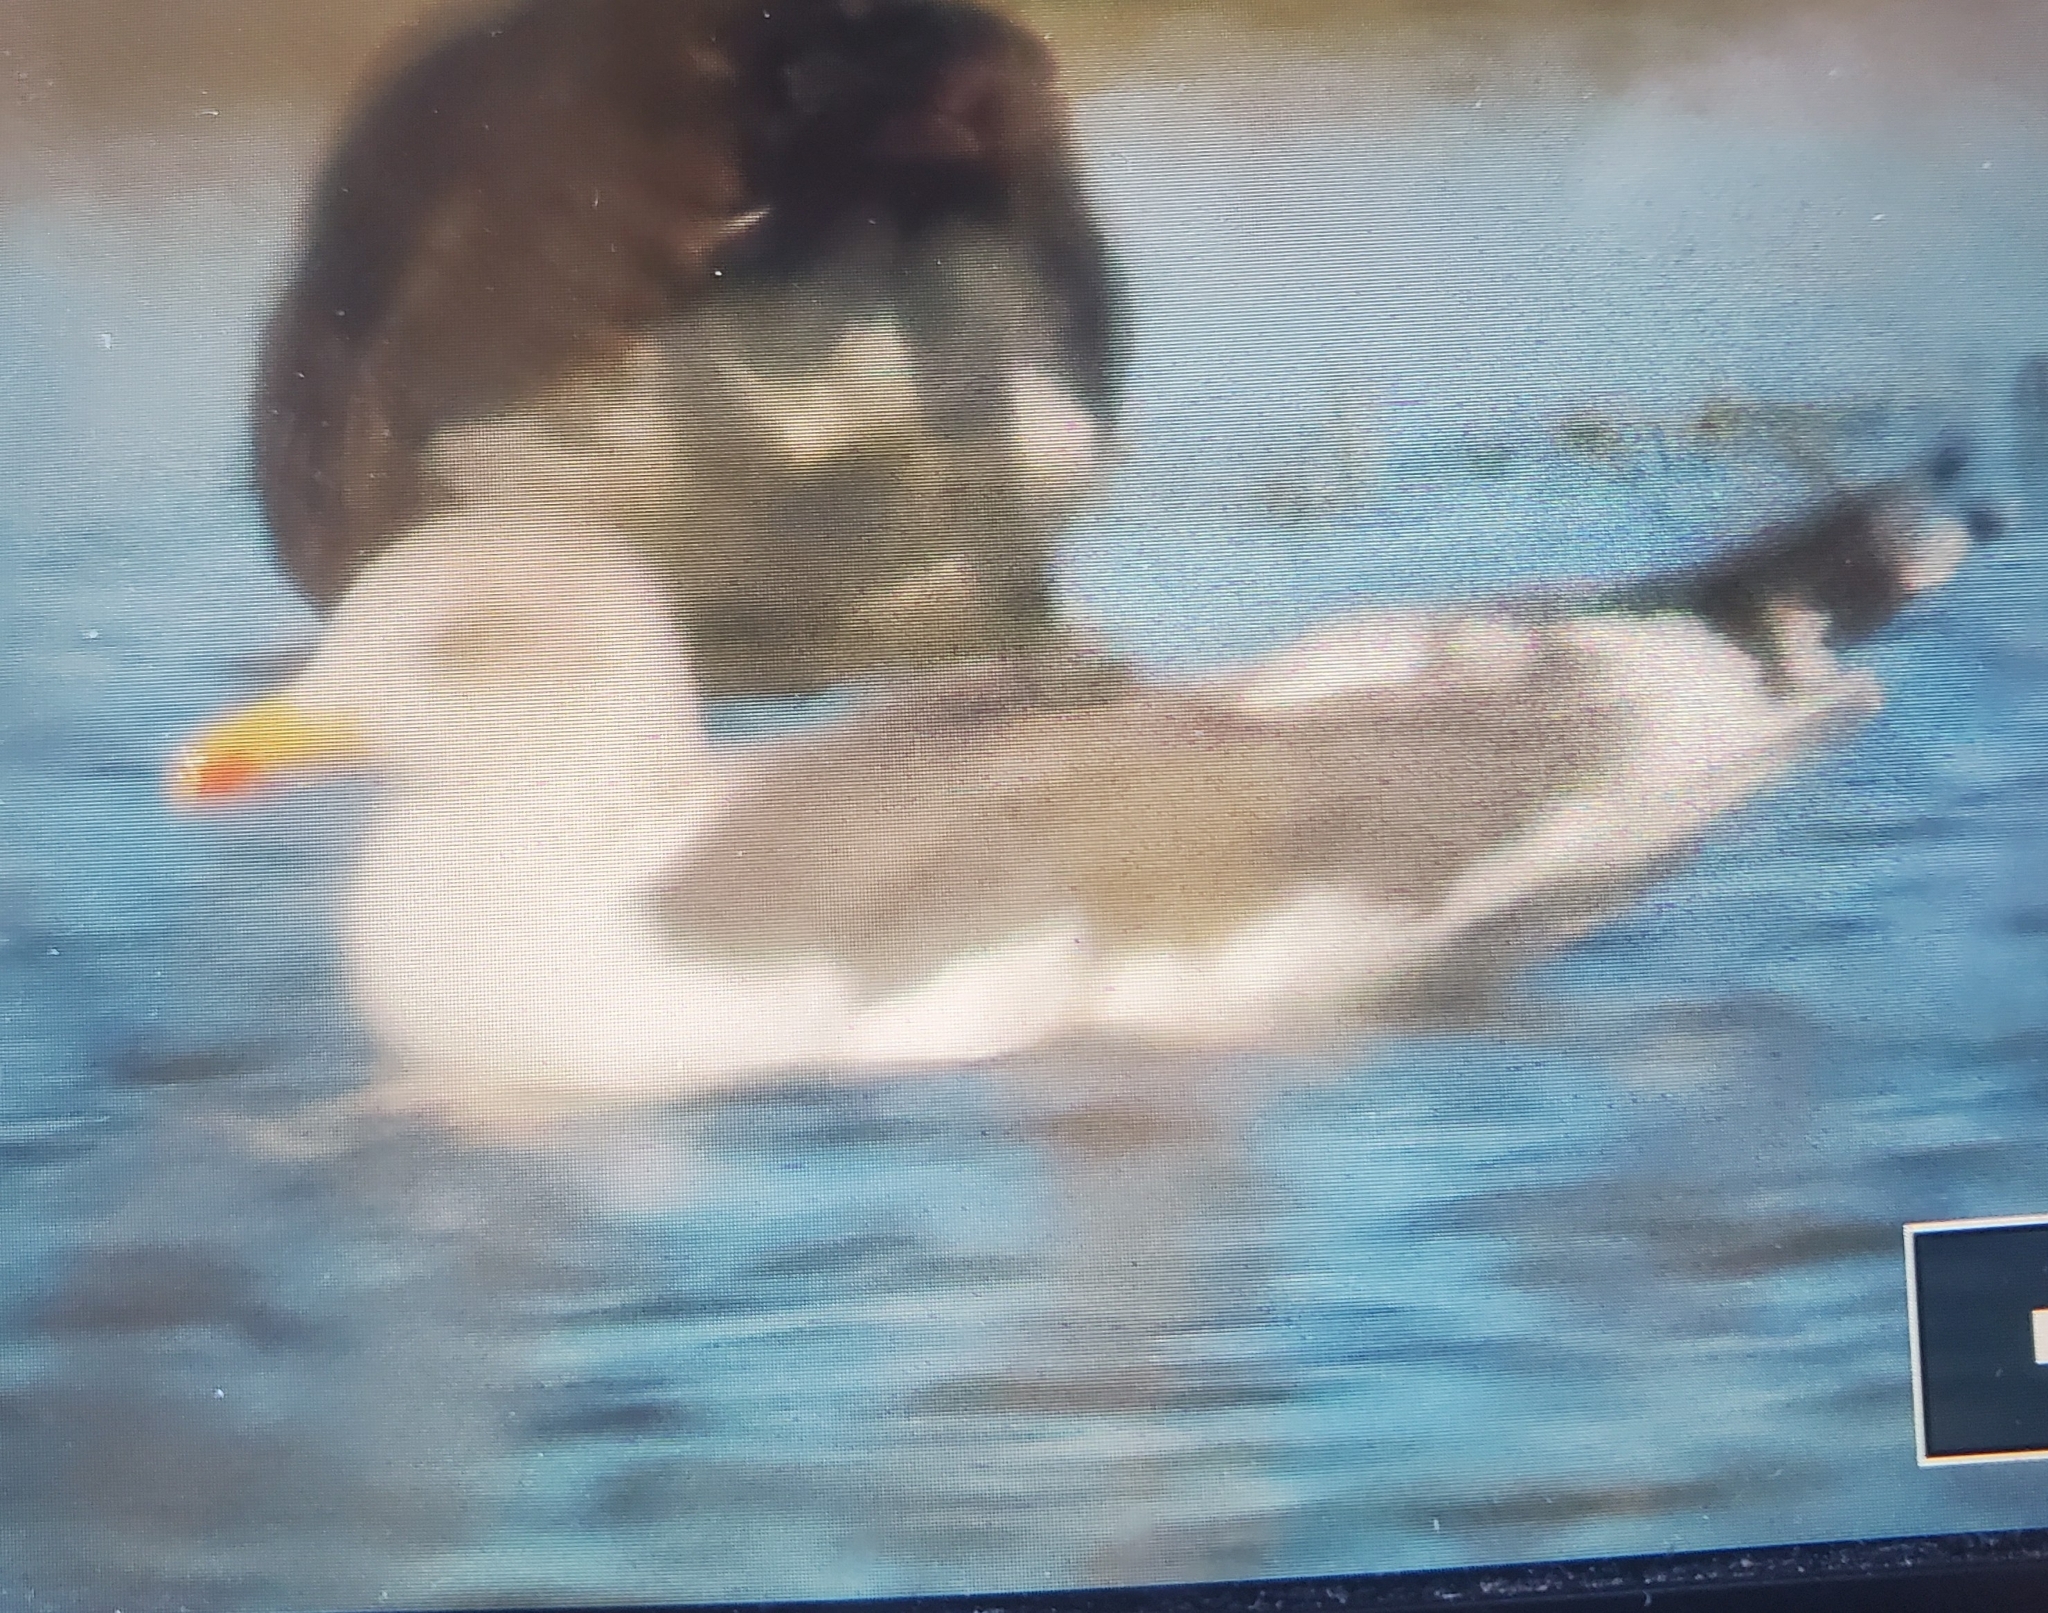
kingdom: Animalia
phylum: Chordata
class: Aves
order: Charadriiformes
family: Laridae
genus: Larus
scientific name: Larus argentatus
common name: Herring gull
